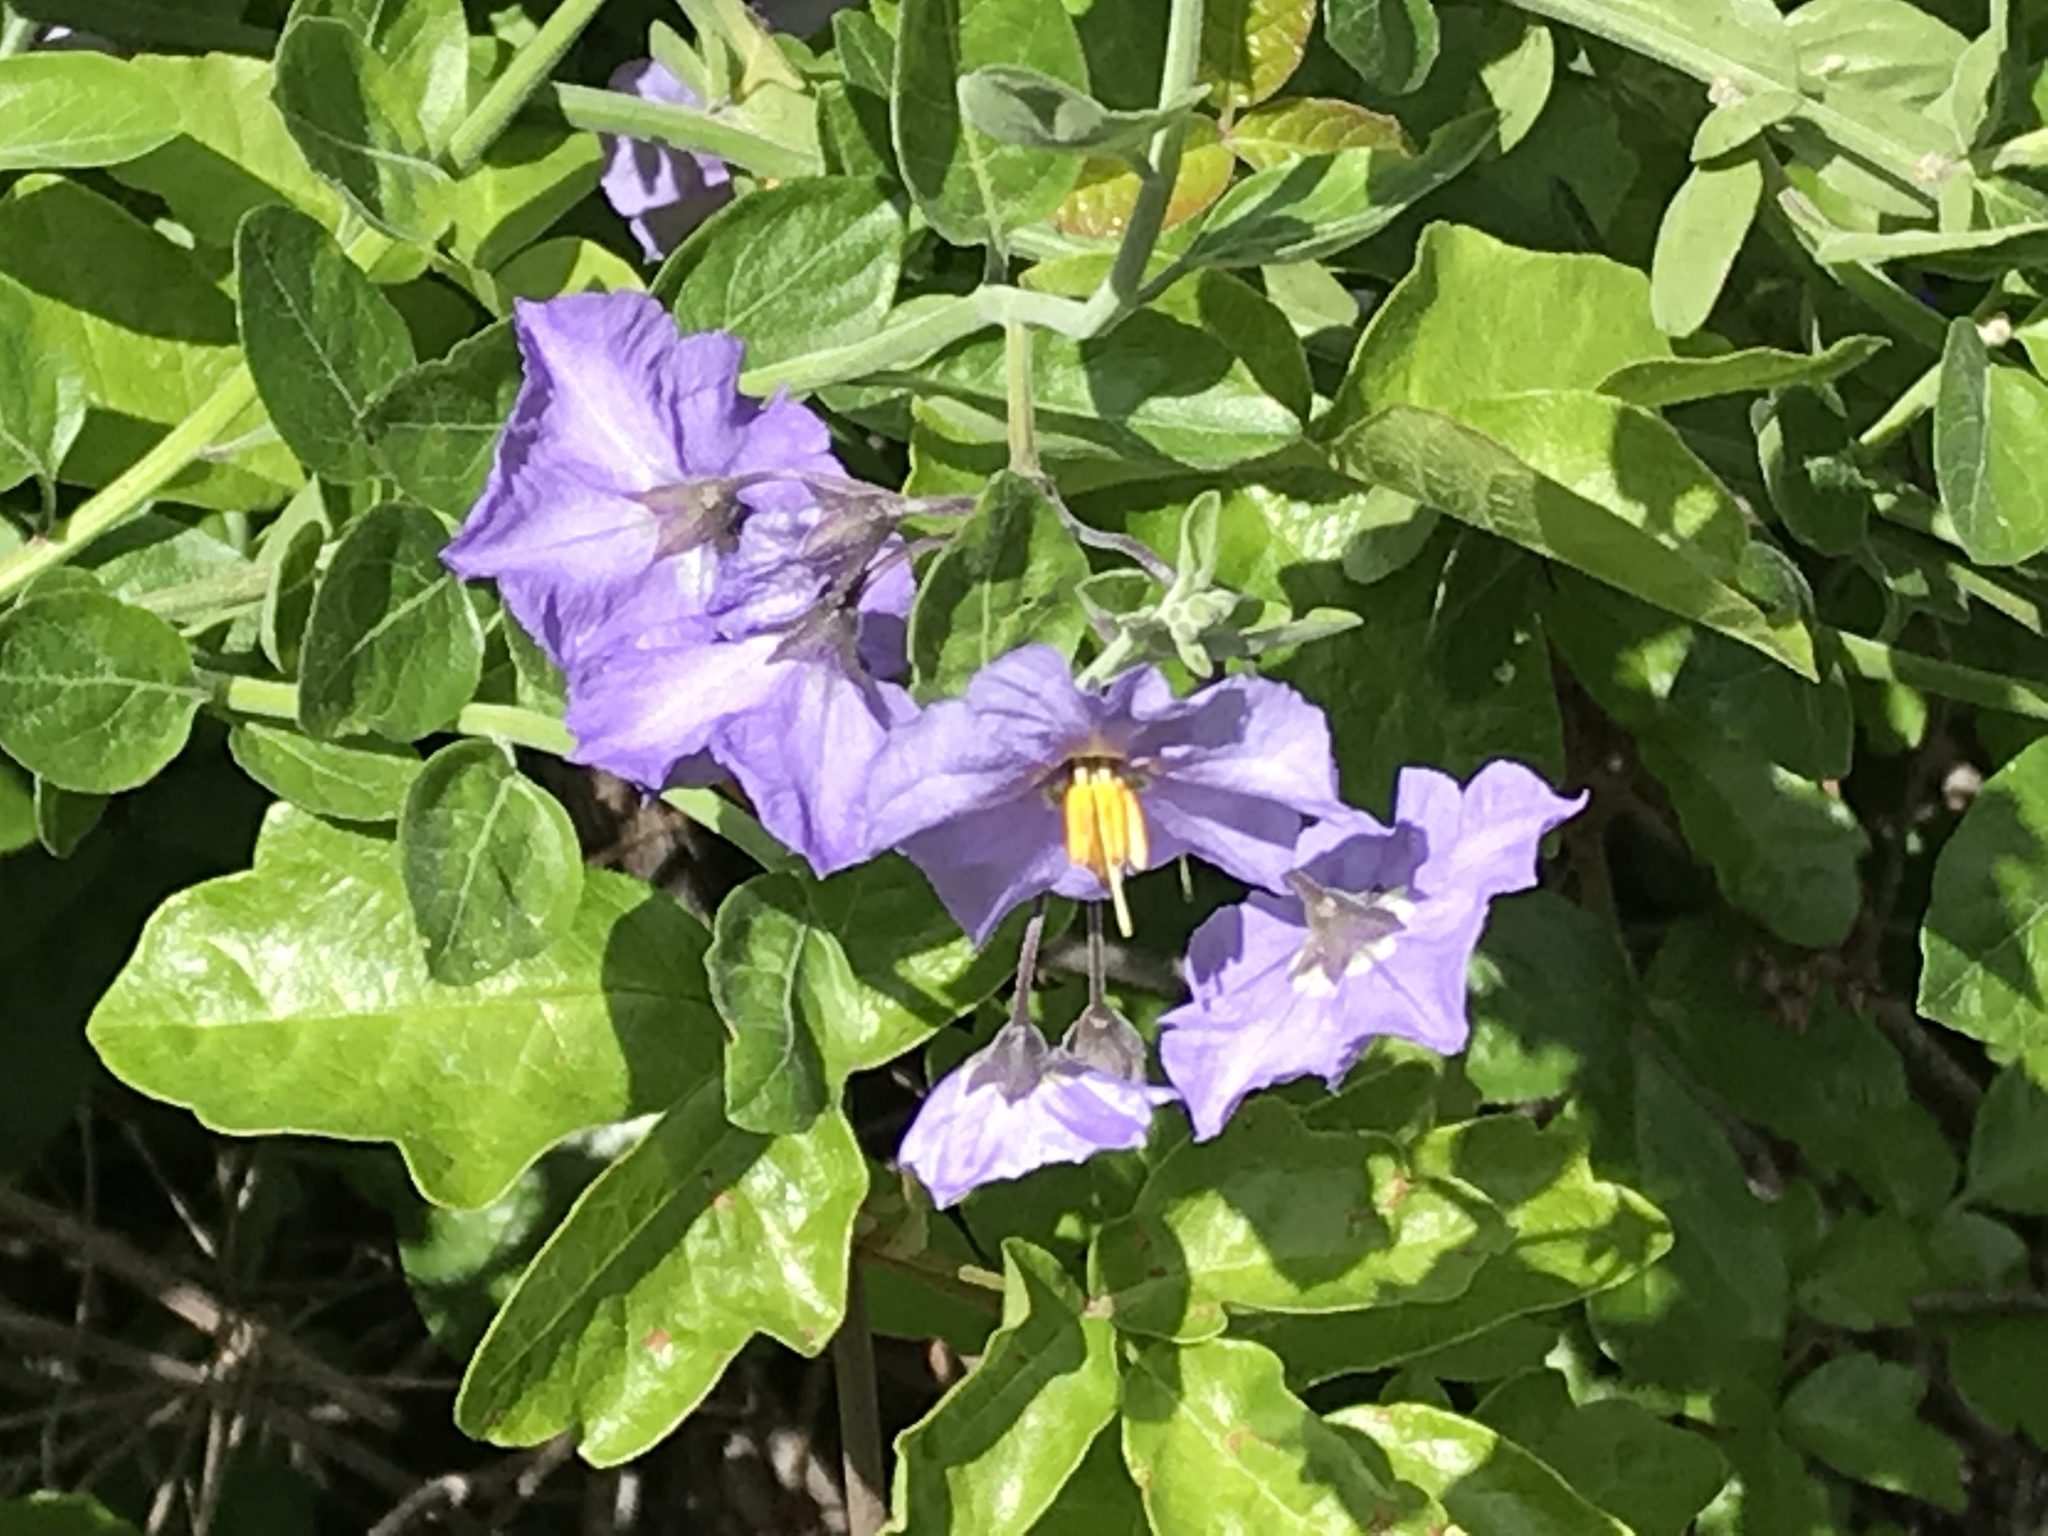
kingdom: Plantae
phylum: Tracheophyta
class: Magnoliopsida
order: Solanales
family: Solanaceae
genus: Solanum
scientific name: Solanum umbelliferum
